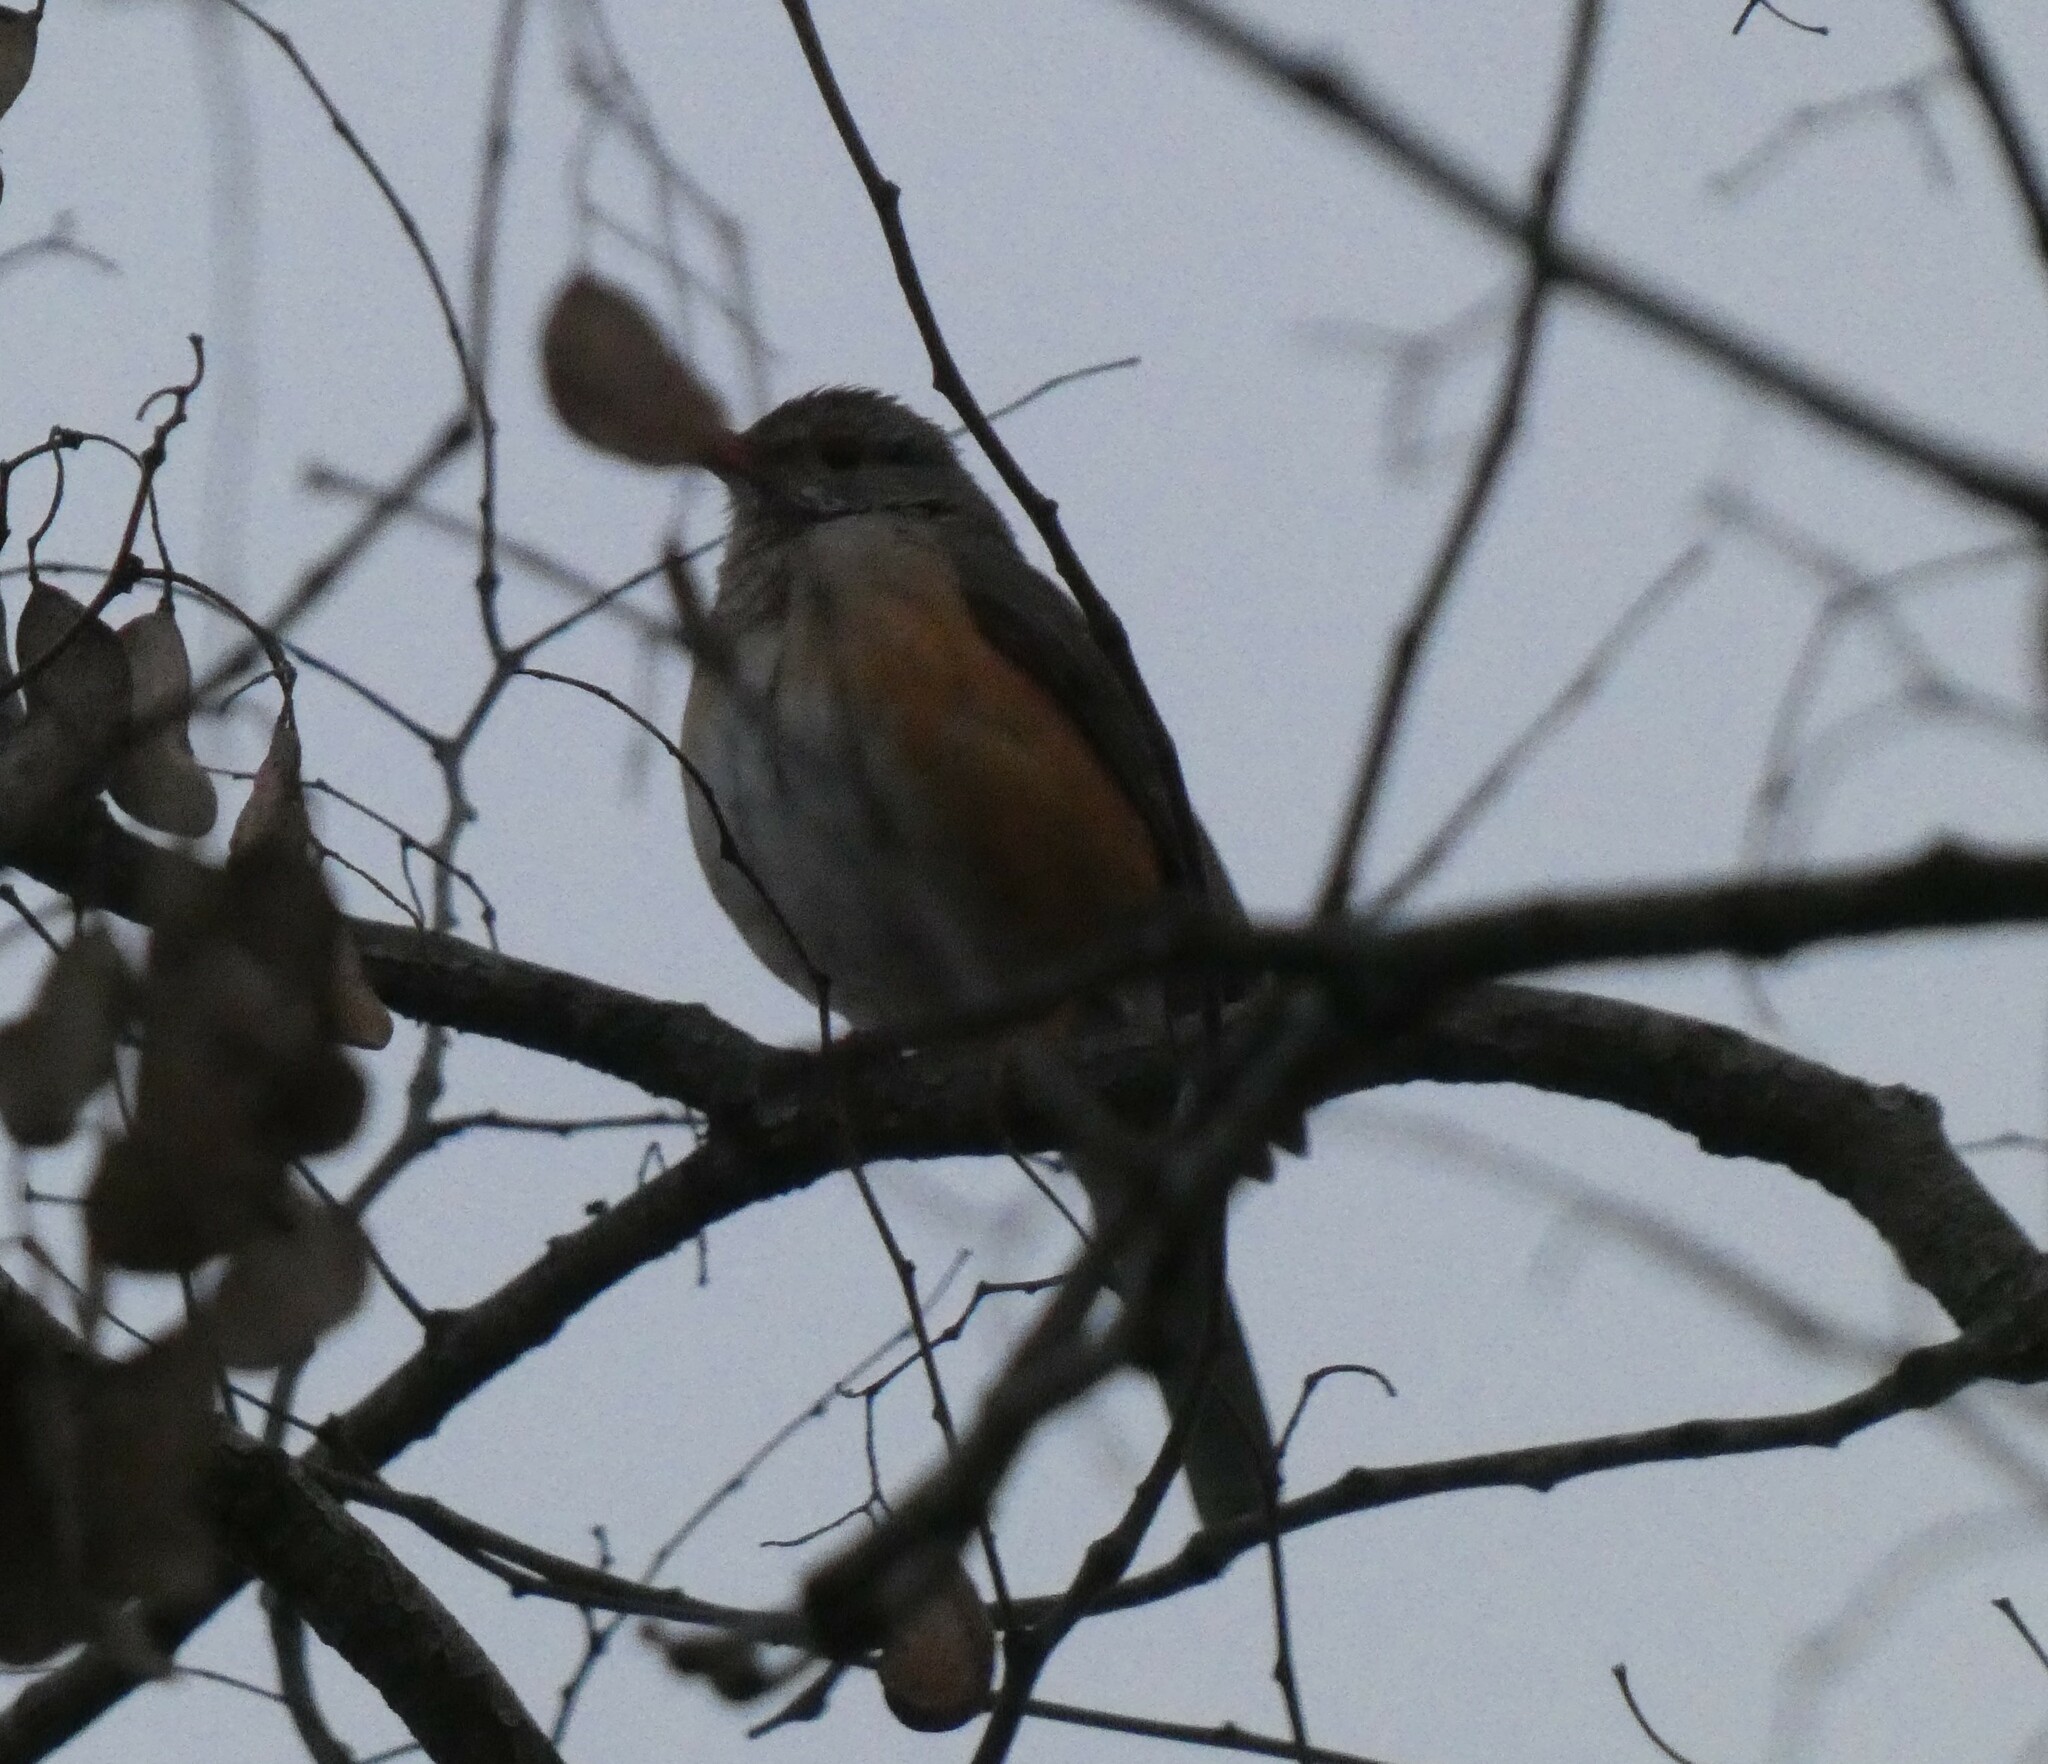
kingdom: Animalia
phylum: Chordata
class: Aves
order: Passeriformes
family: Turdidae
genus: Turdus
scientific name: Turdus libonyana
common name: Kurrichane thrush
